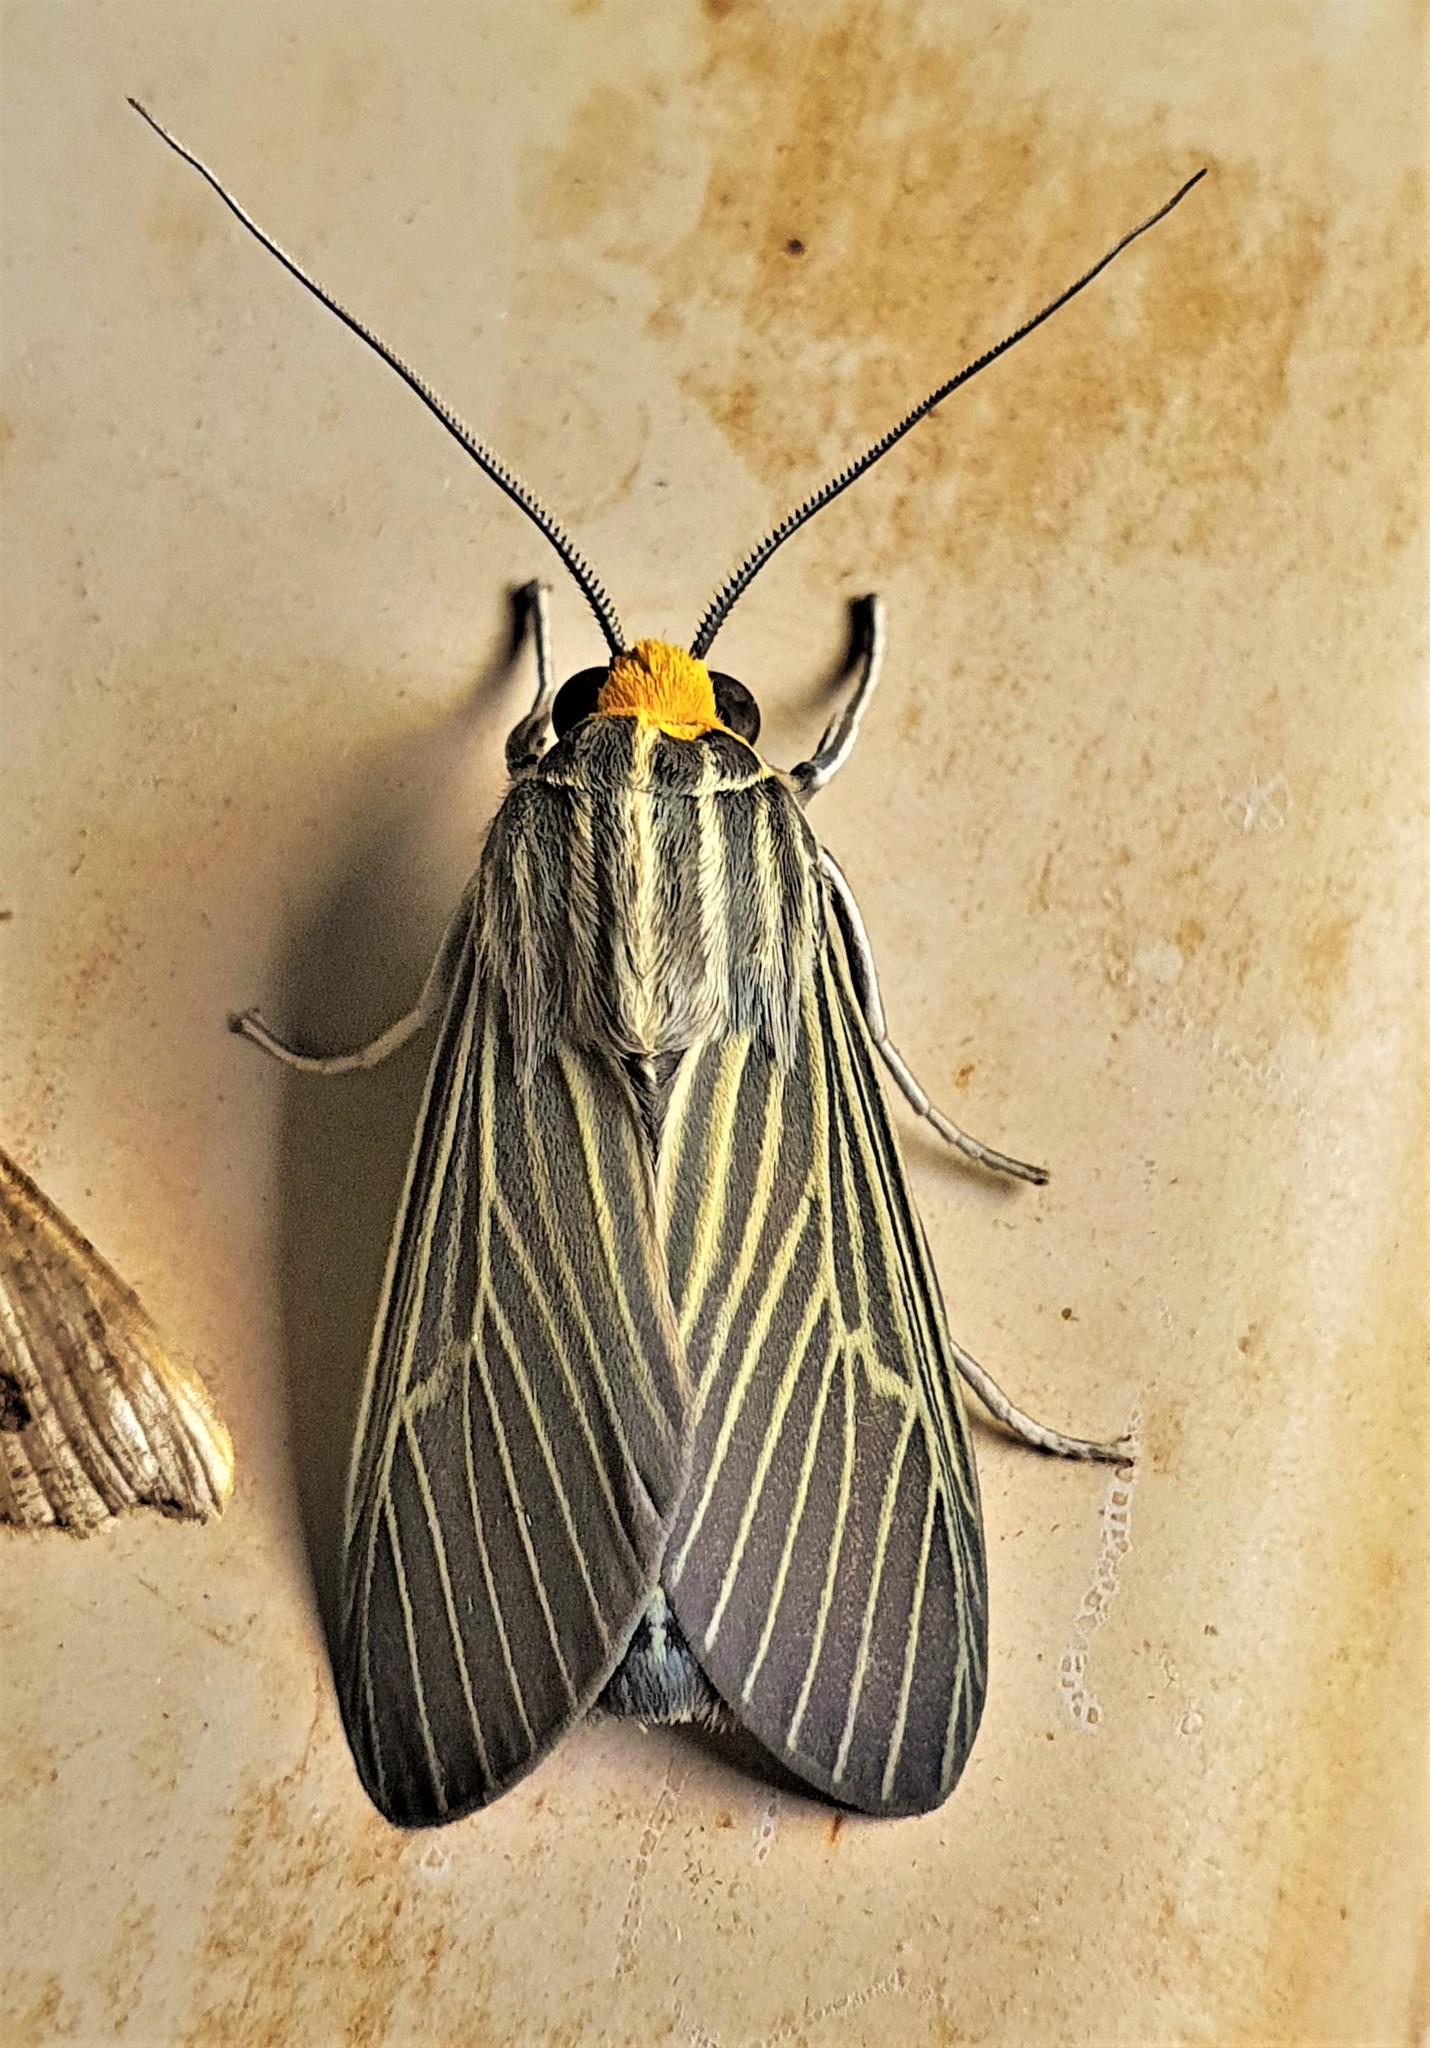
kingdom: Animalia
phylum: Arthropoda
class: Insecta
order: Lepidoptera
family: Erebidae
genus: Apyre
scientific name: Apyre separata
